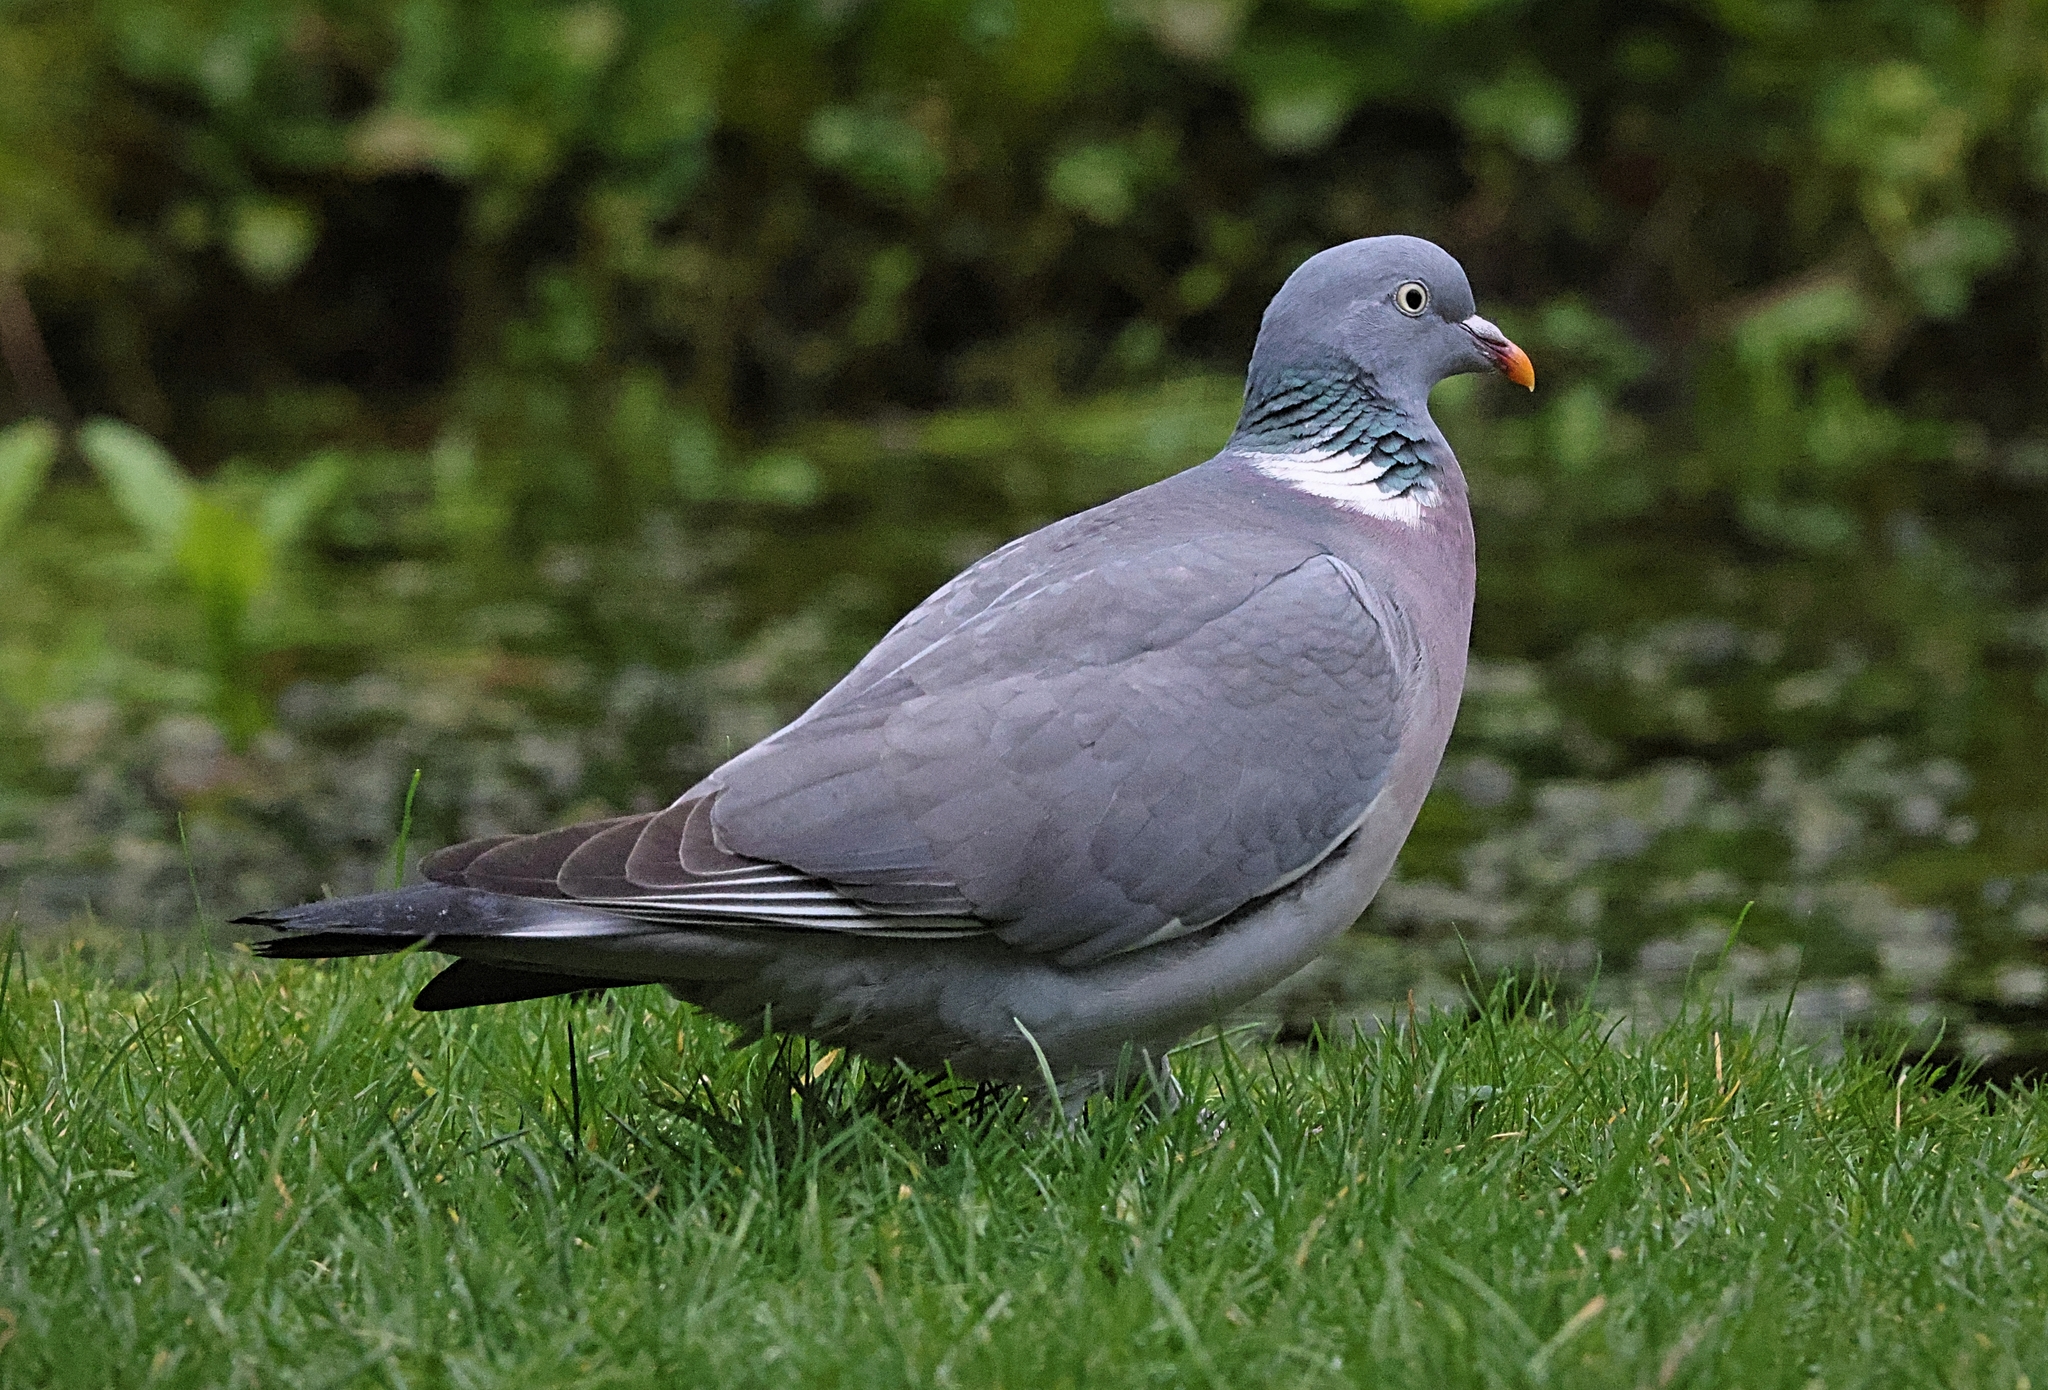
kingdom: Animalia
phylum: Chordata
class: Aves
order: Columbiformes
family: Columbidae
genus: Columba
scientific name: Columba palumbus
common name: Common wood pigeon
